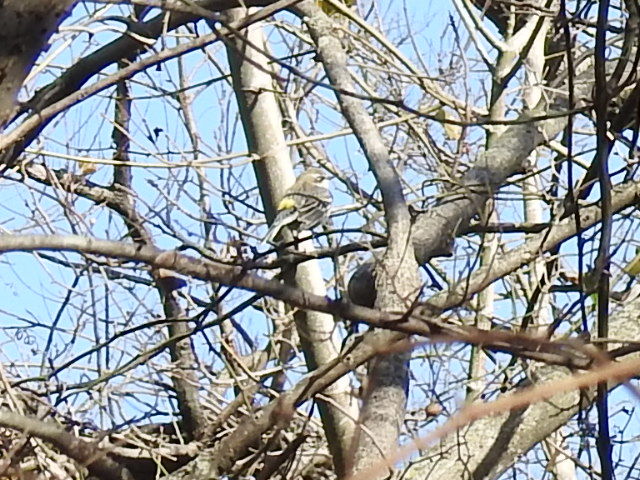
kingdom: Animalia
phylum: Chordata
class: Aves
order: Passeriformes
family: Parulidae
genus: Setophaga
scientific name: Setophaga coronata
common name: Myrtle warbler
